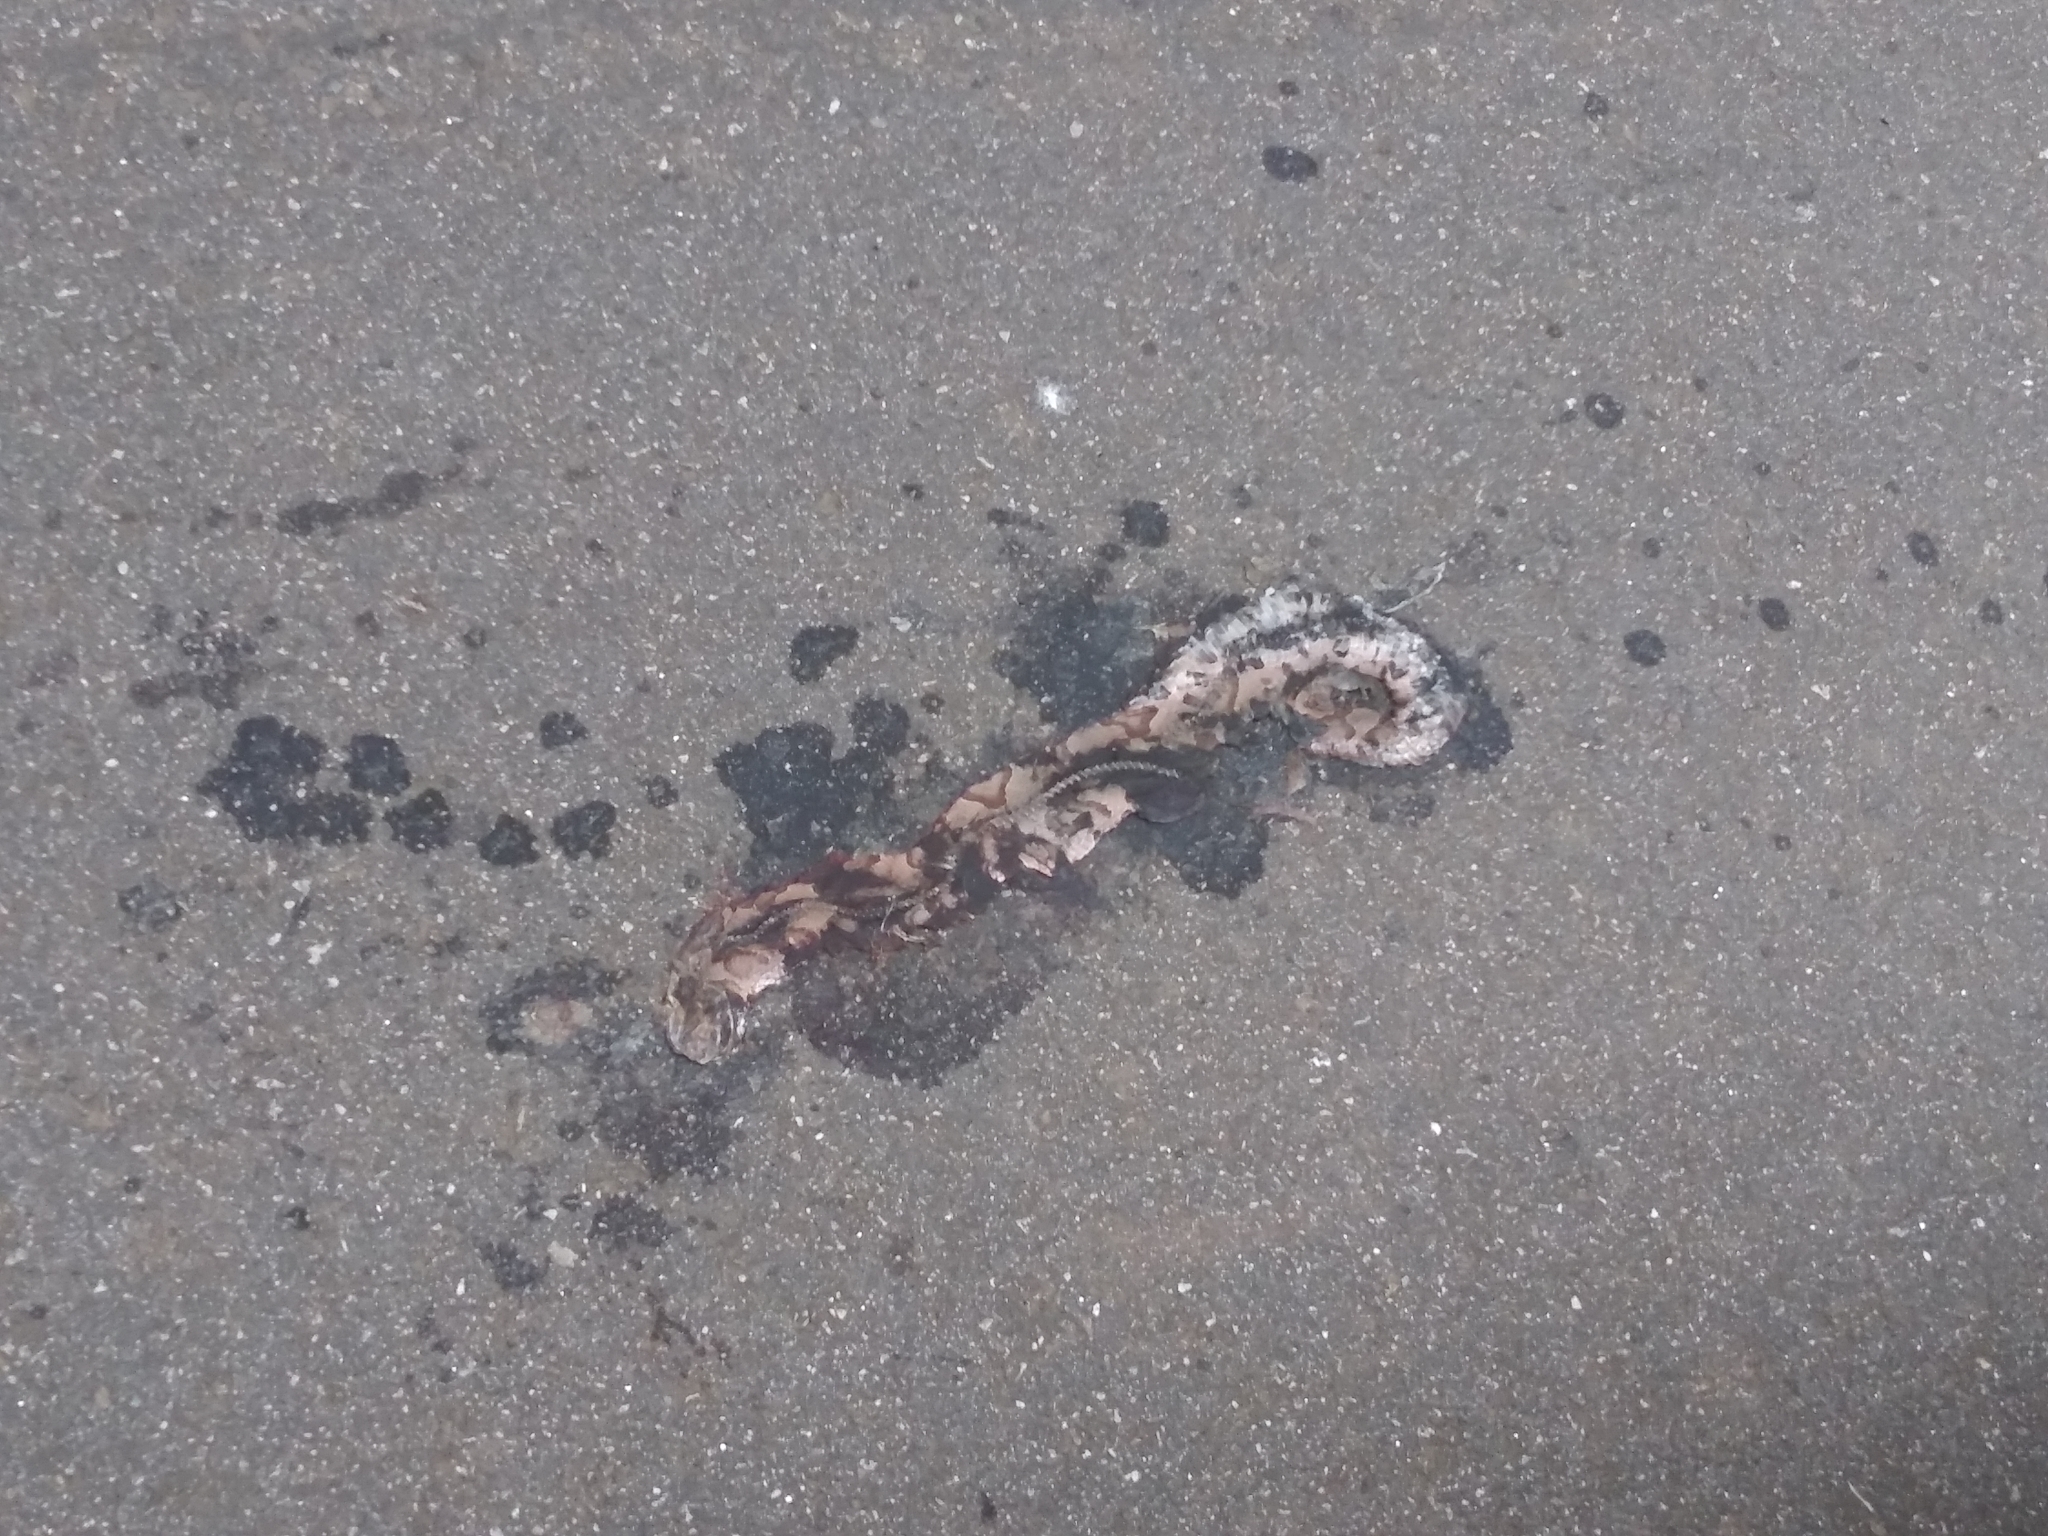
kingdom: Animalia
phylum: Chordata
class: Squamata
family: Viperidae
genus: Agkistrodon
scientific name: Agkistrodon contortrix
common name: Northern copperhead
